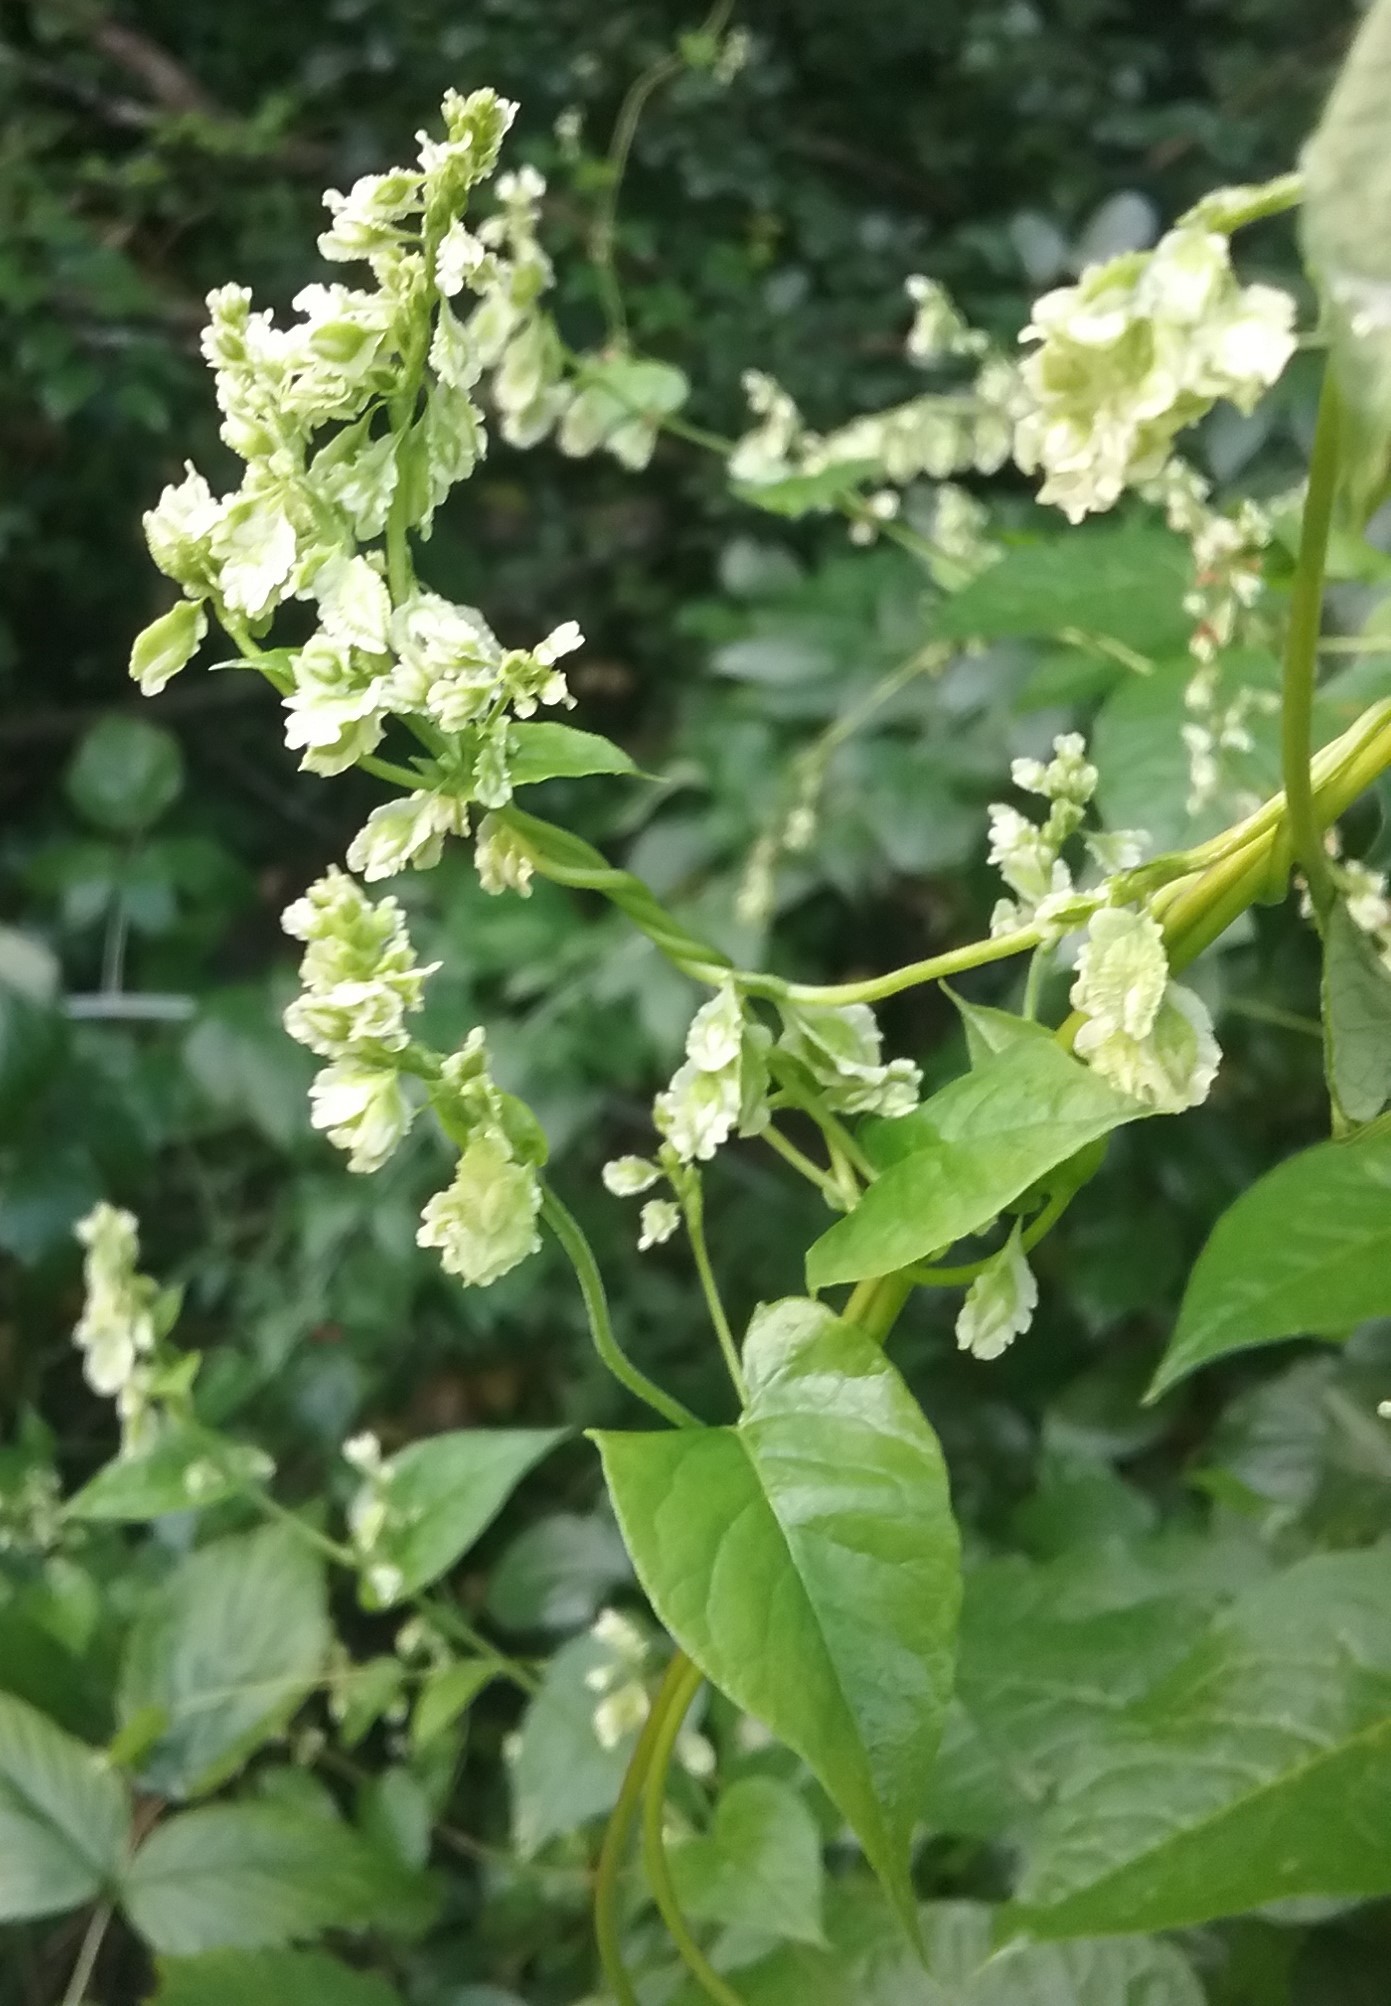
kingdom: Plantae
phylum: Tracheophyta
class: Magnoliopsida
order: Caryophyllales
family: Polygonaceae
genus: Fallopia
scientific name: Fallopia scandens
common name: Climbing false buckwheat
